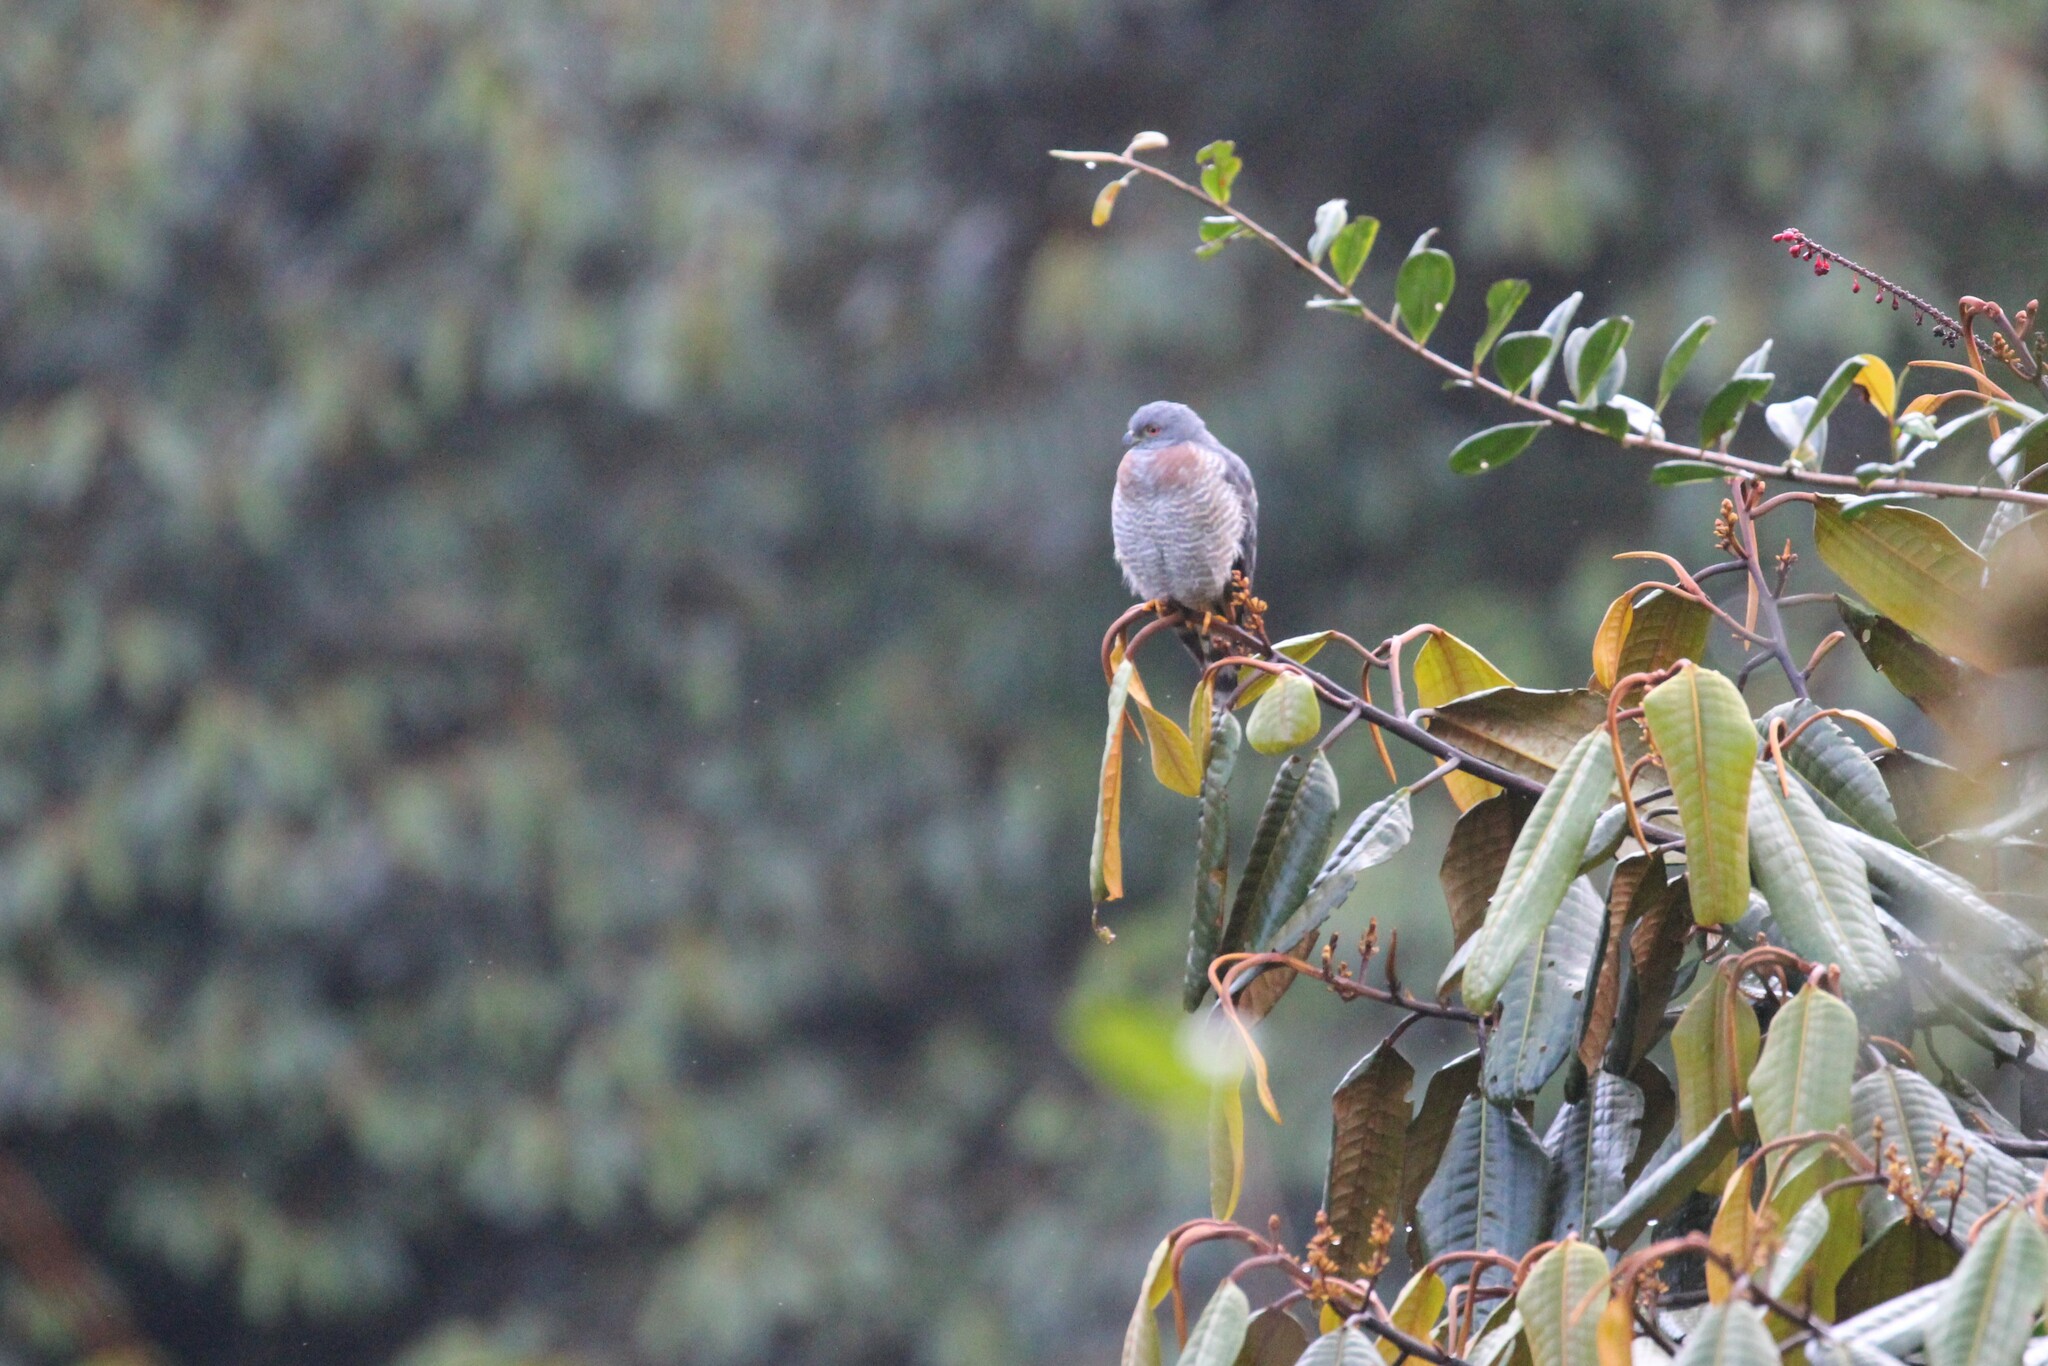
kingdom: Animalia
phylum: Chordata
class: Aves
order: Accipitriformes
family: Accipitridae
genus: Harpagus
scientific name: Harpagus bidentatus
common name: Double-toothed kite
